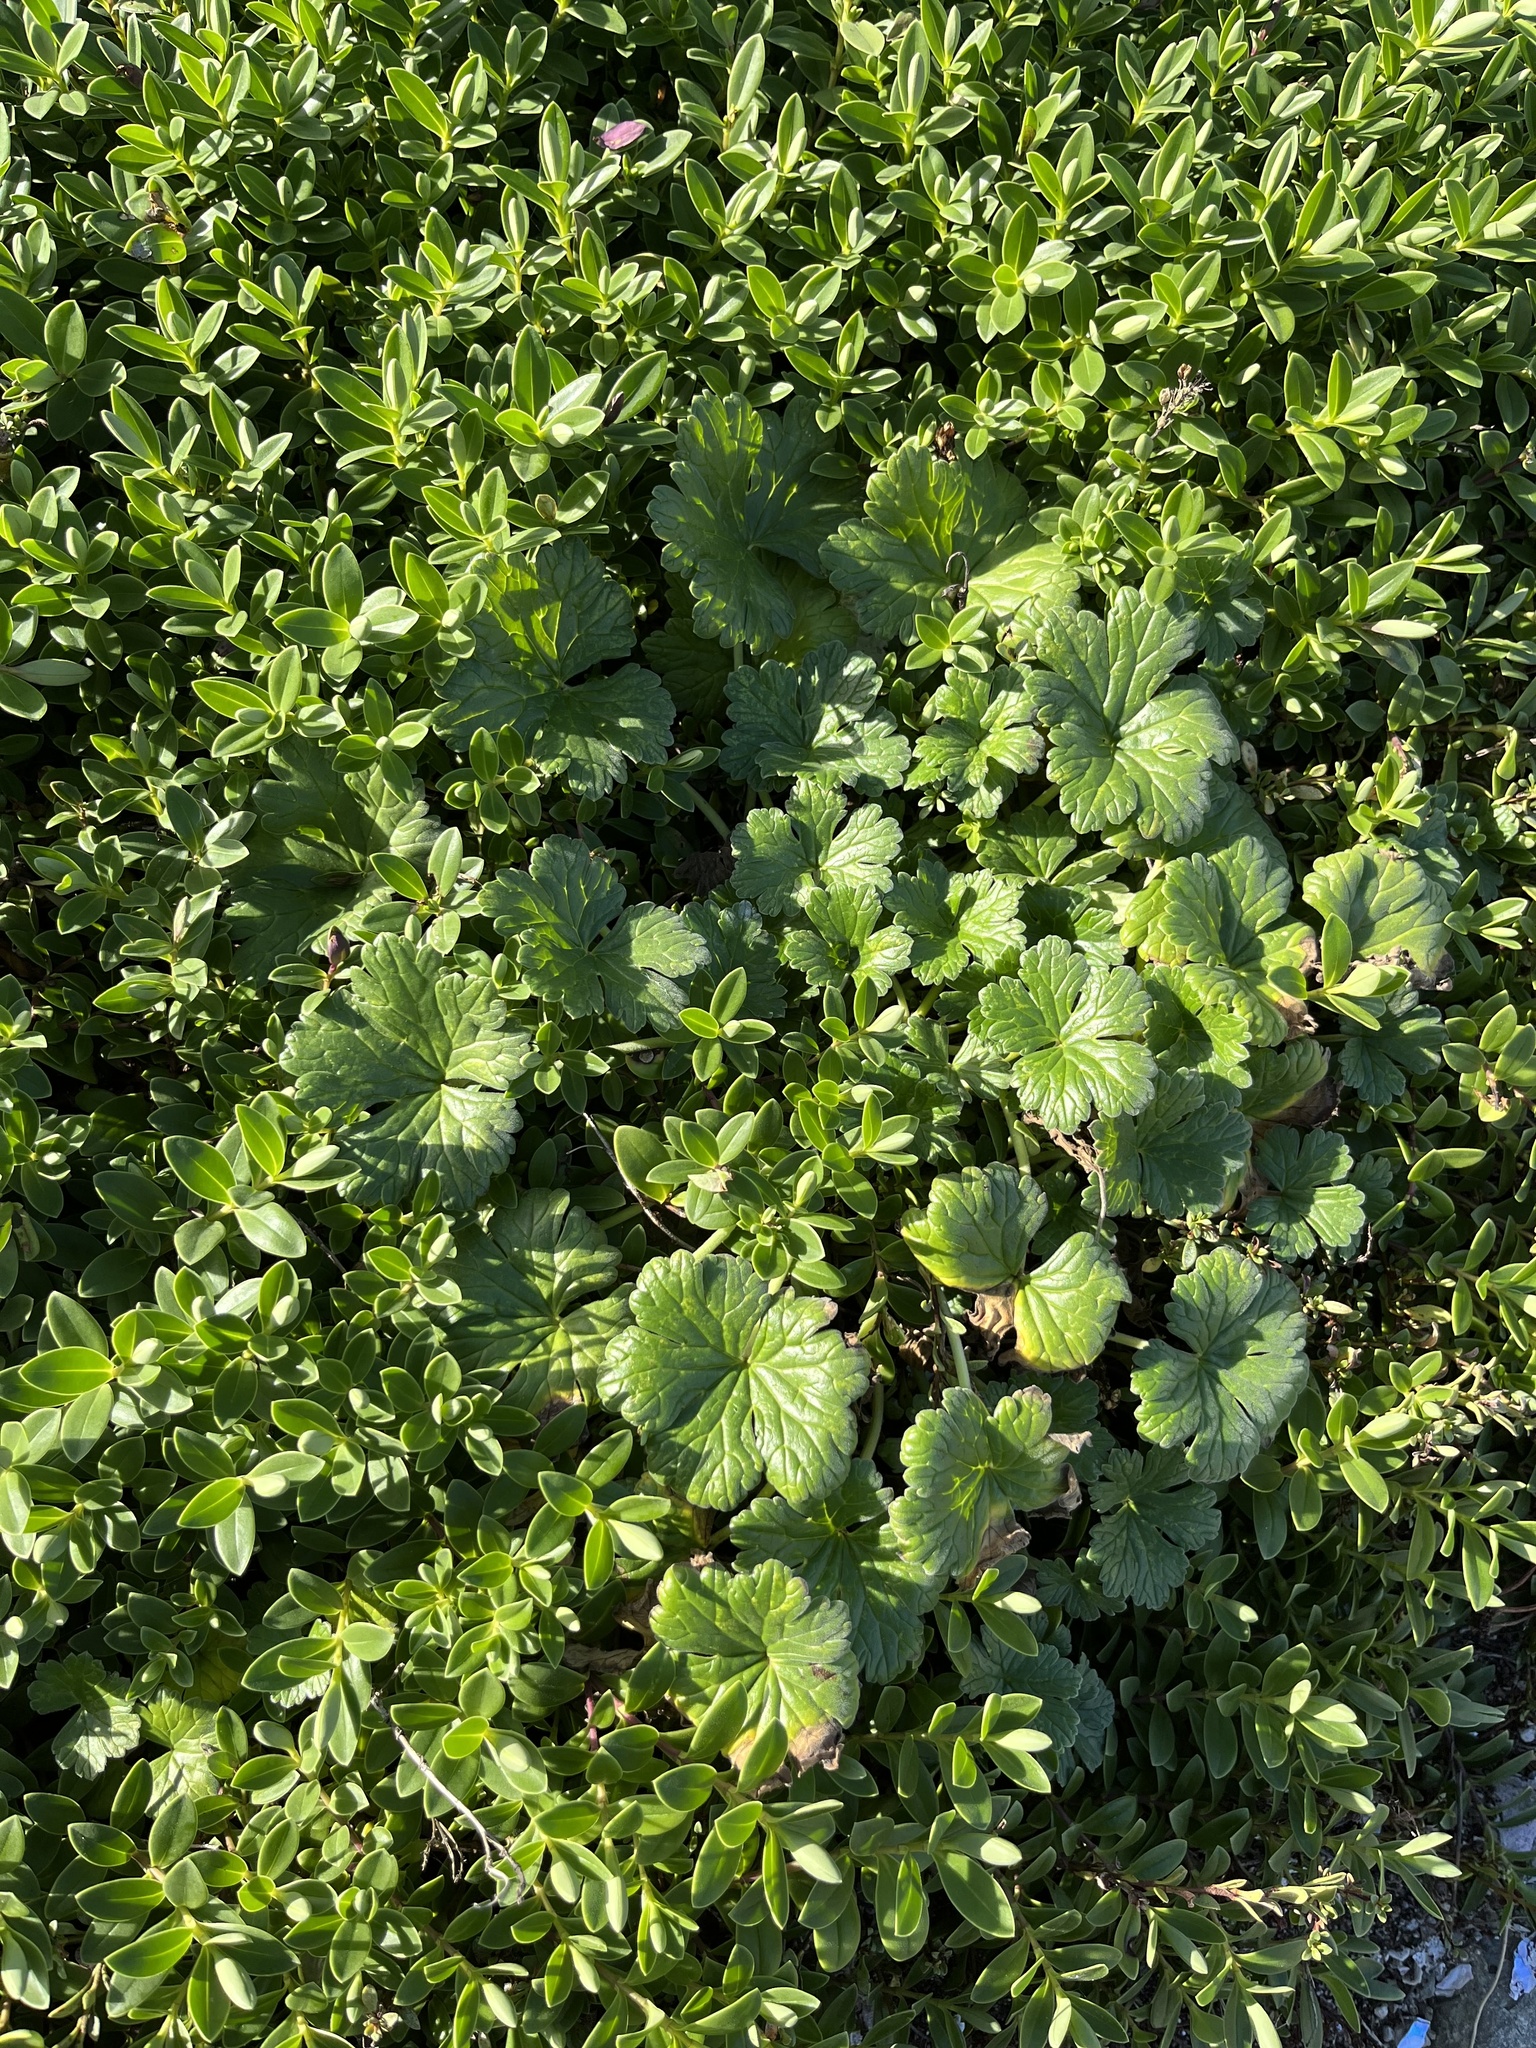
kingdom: Plantae
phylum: Tracheophyta
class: Magnoliopsida
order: Geraniales
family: Geraniaceae
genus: Geranium
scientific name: Geranium traversii
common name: Cranesbill
